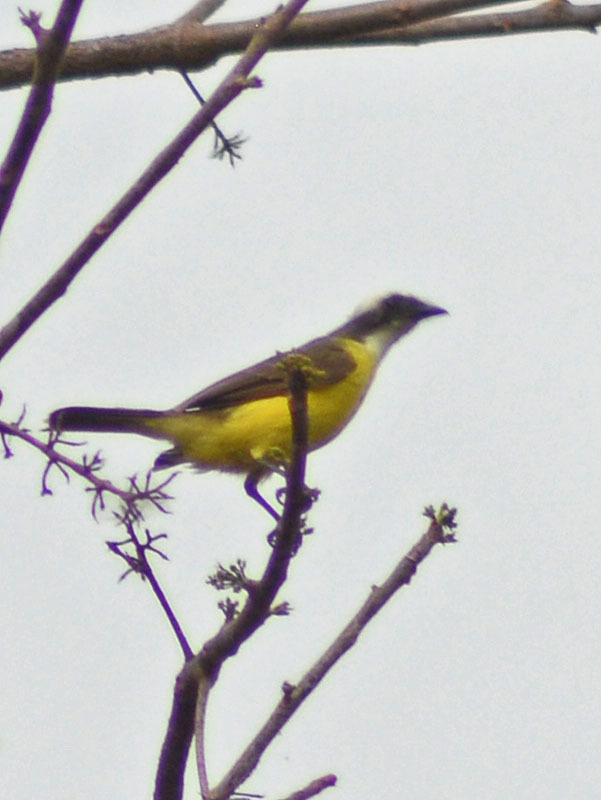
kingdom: Animalia
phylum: Chordata
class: Aves
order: Passeriformes
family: Tyrannidae
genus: Myiozetetes
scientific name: Myiozetetes similis
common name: Social flycatcher
